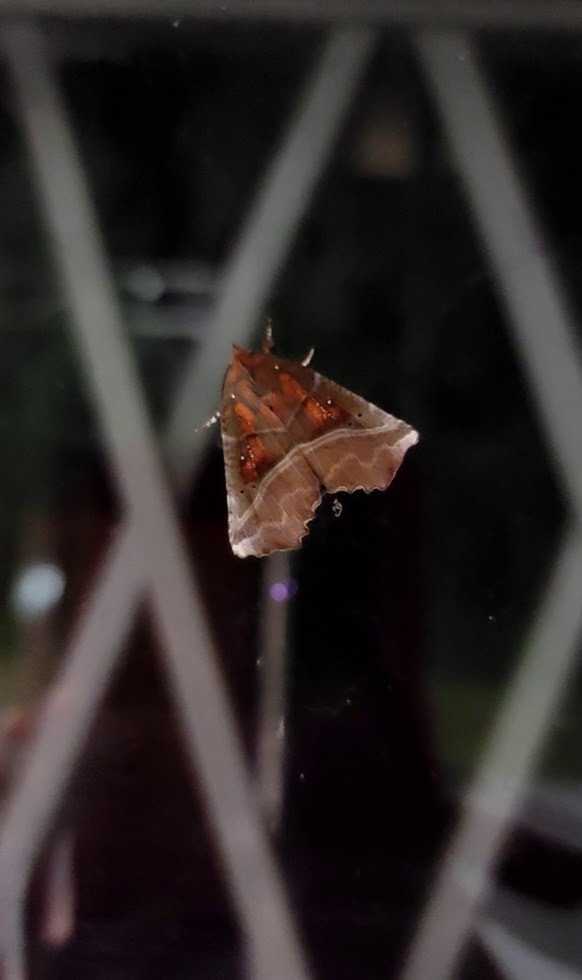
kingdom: Animalia
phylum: Arthropoda
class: Insecta
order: Lepidoptera
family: Erebidae
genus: Scoliopteryx
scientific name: Scoliopteryx libatrix
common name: Herald
